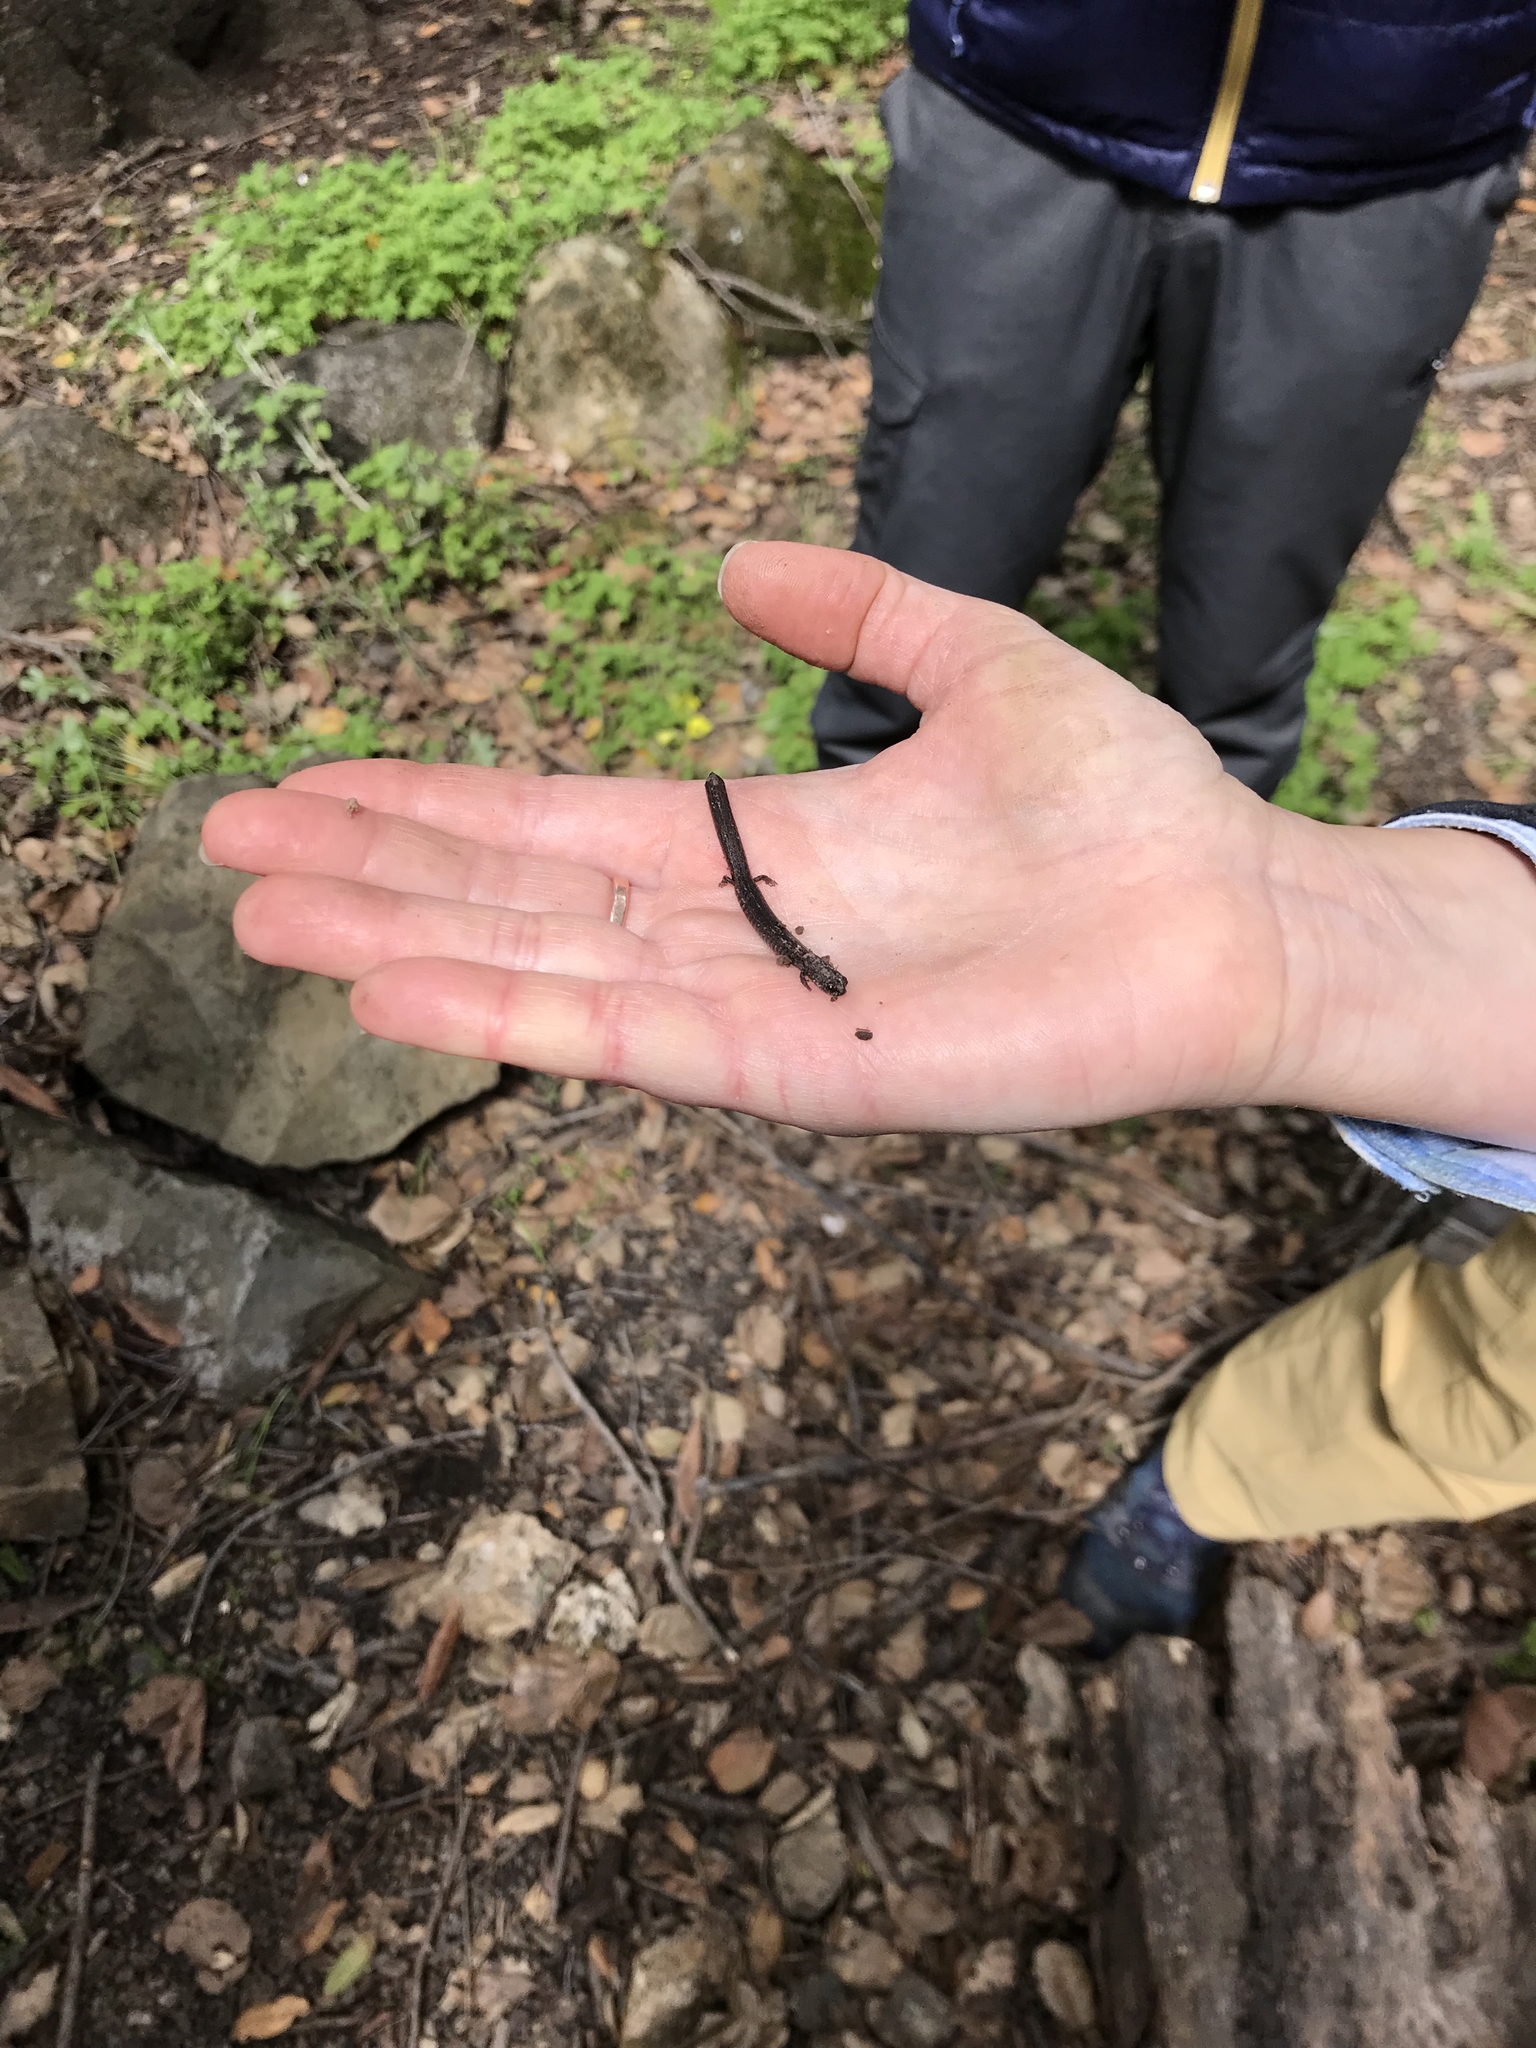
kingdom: Animalia
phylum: Chordata
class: Amphibia
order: Caudata
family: Plethodontidae
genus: Batrachoseps
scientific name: Batrachoseps attenuatus
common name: California slender salamander
